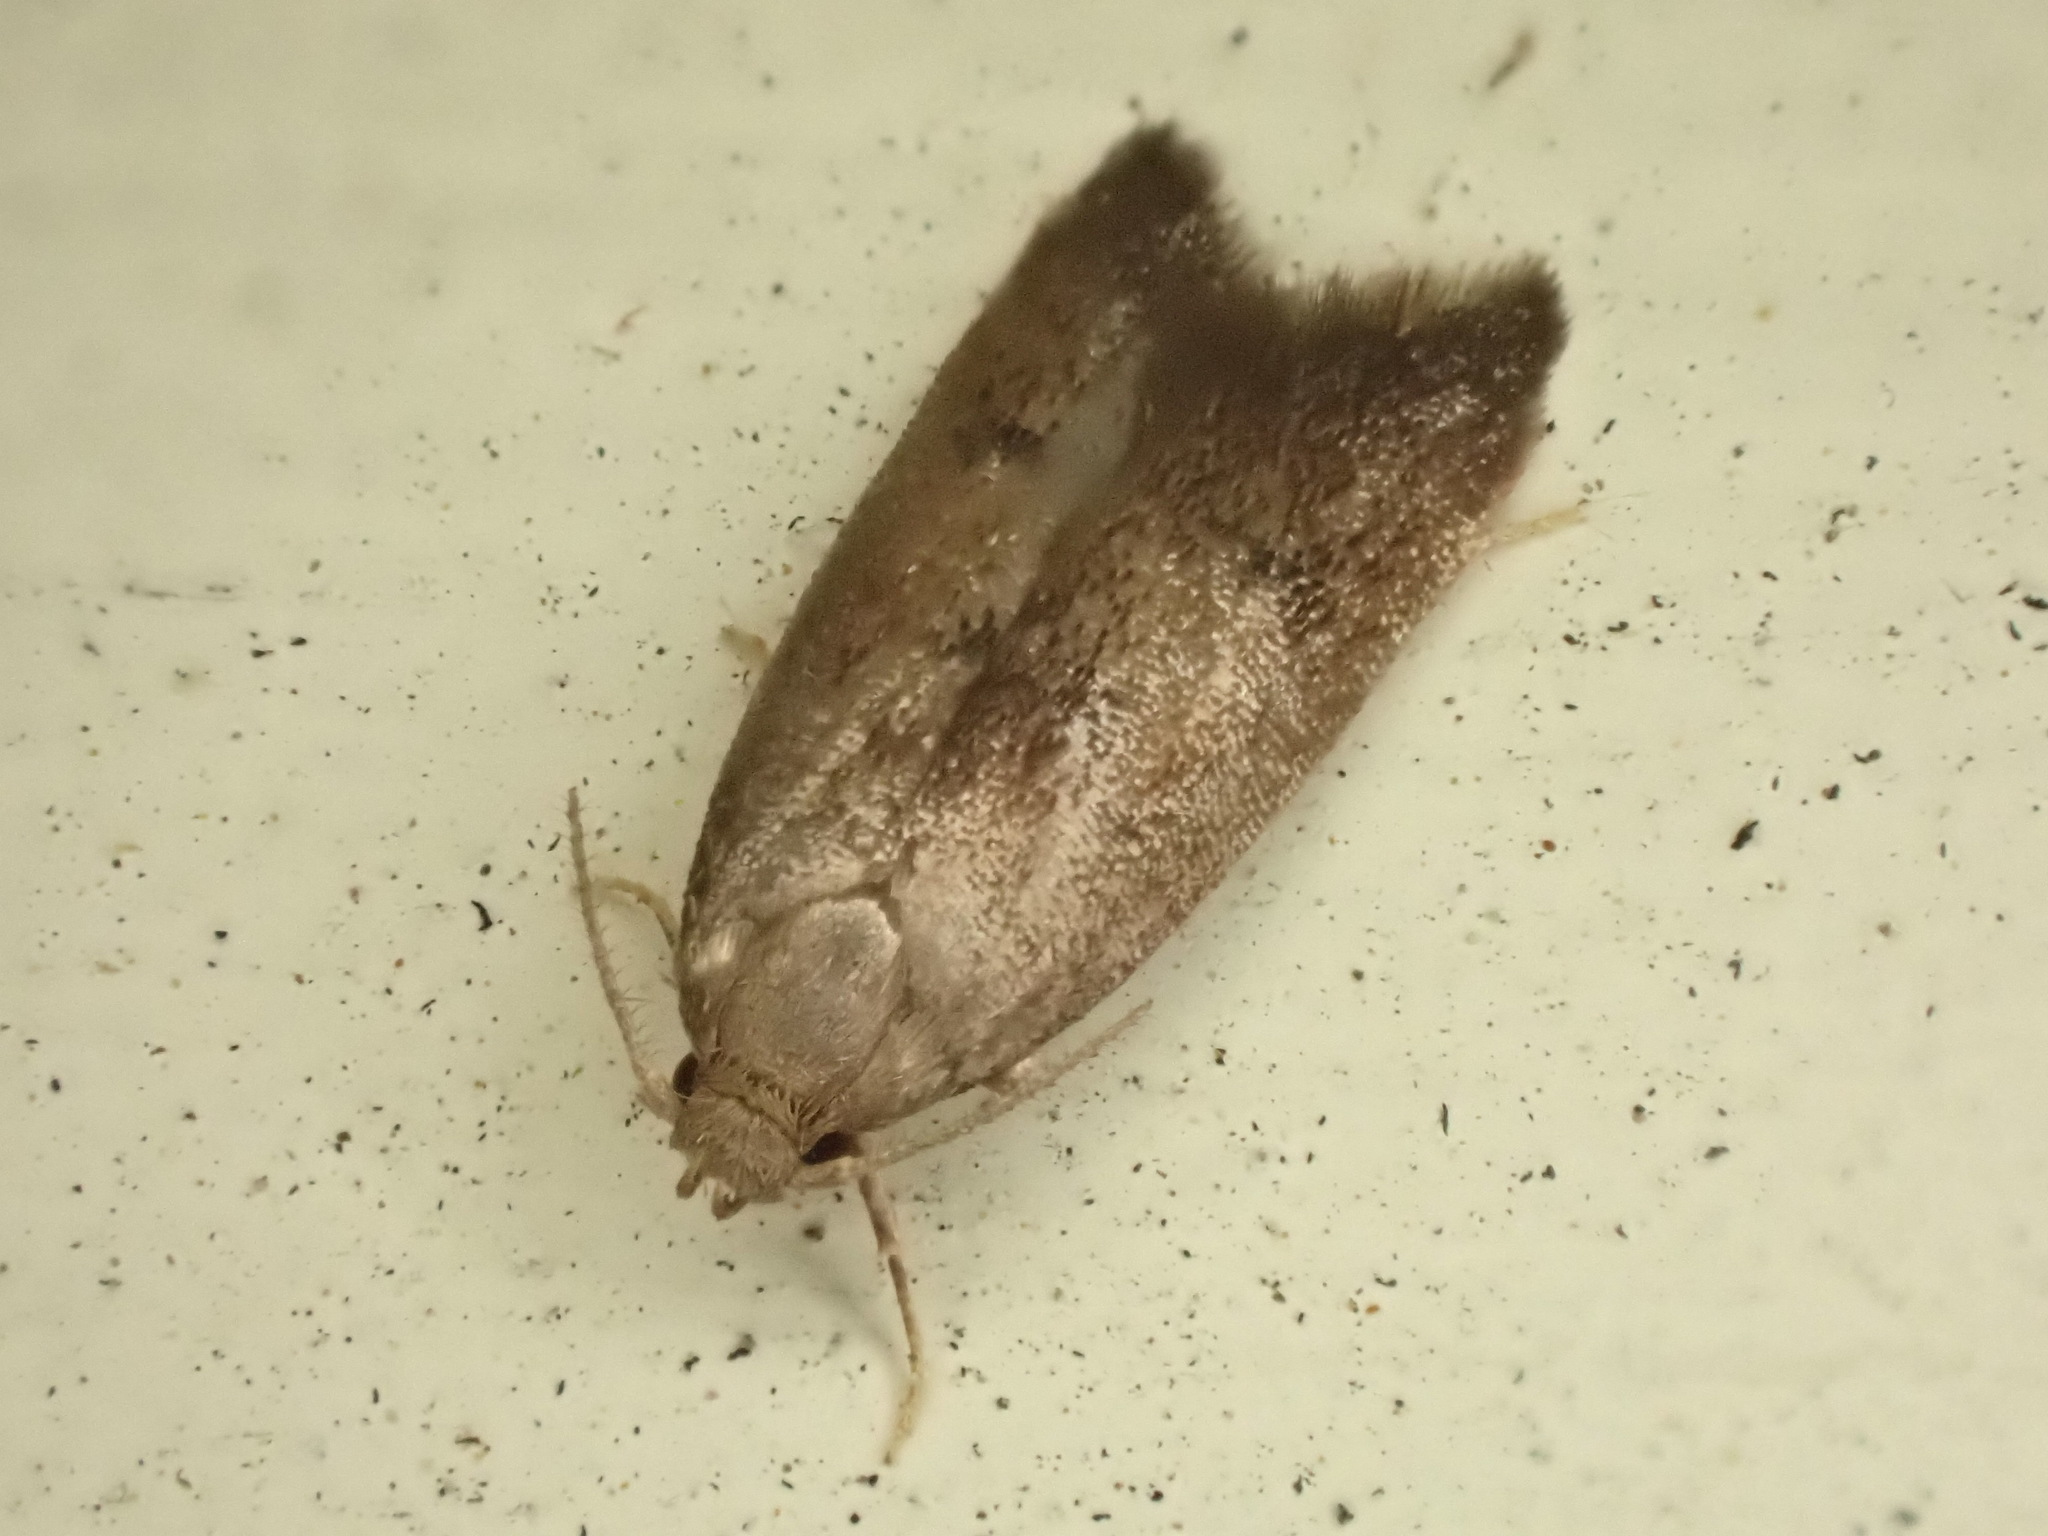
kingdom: Animalia
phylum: Arthropoda
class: Insecta
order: Lepidoptera
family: Oecophoridae
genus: Tachystola
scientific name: Tachystola acroxantha
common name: Ruddy streak
